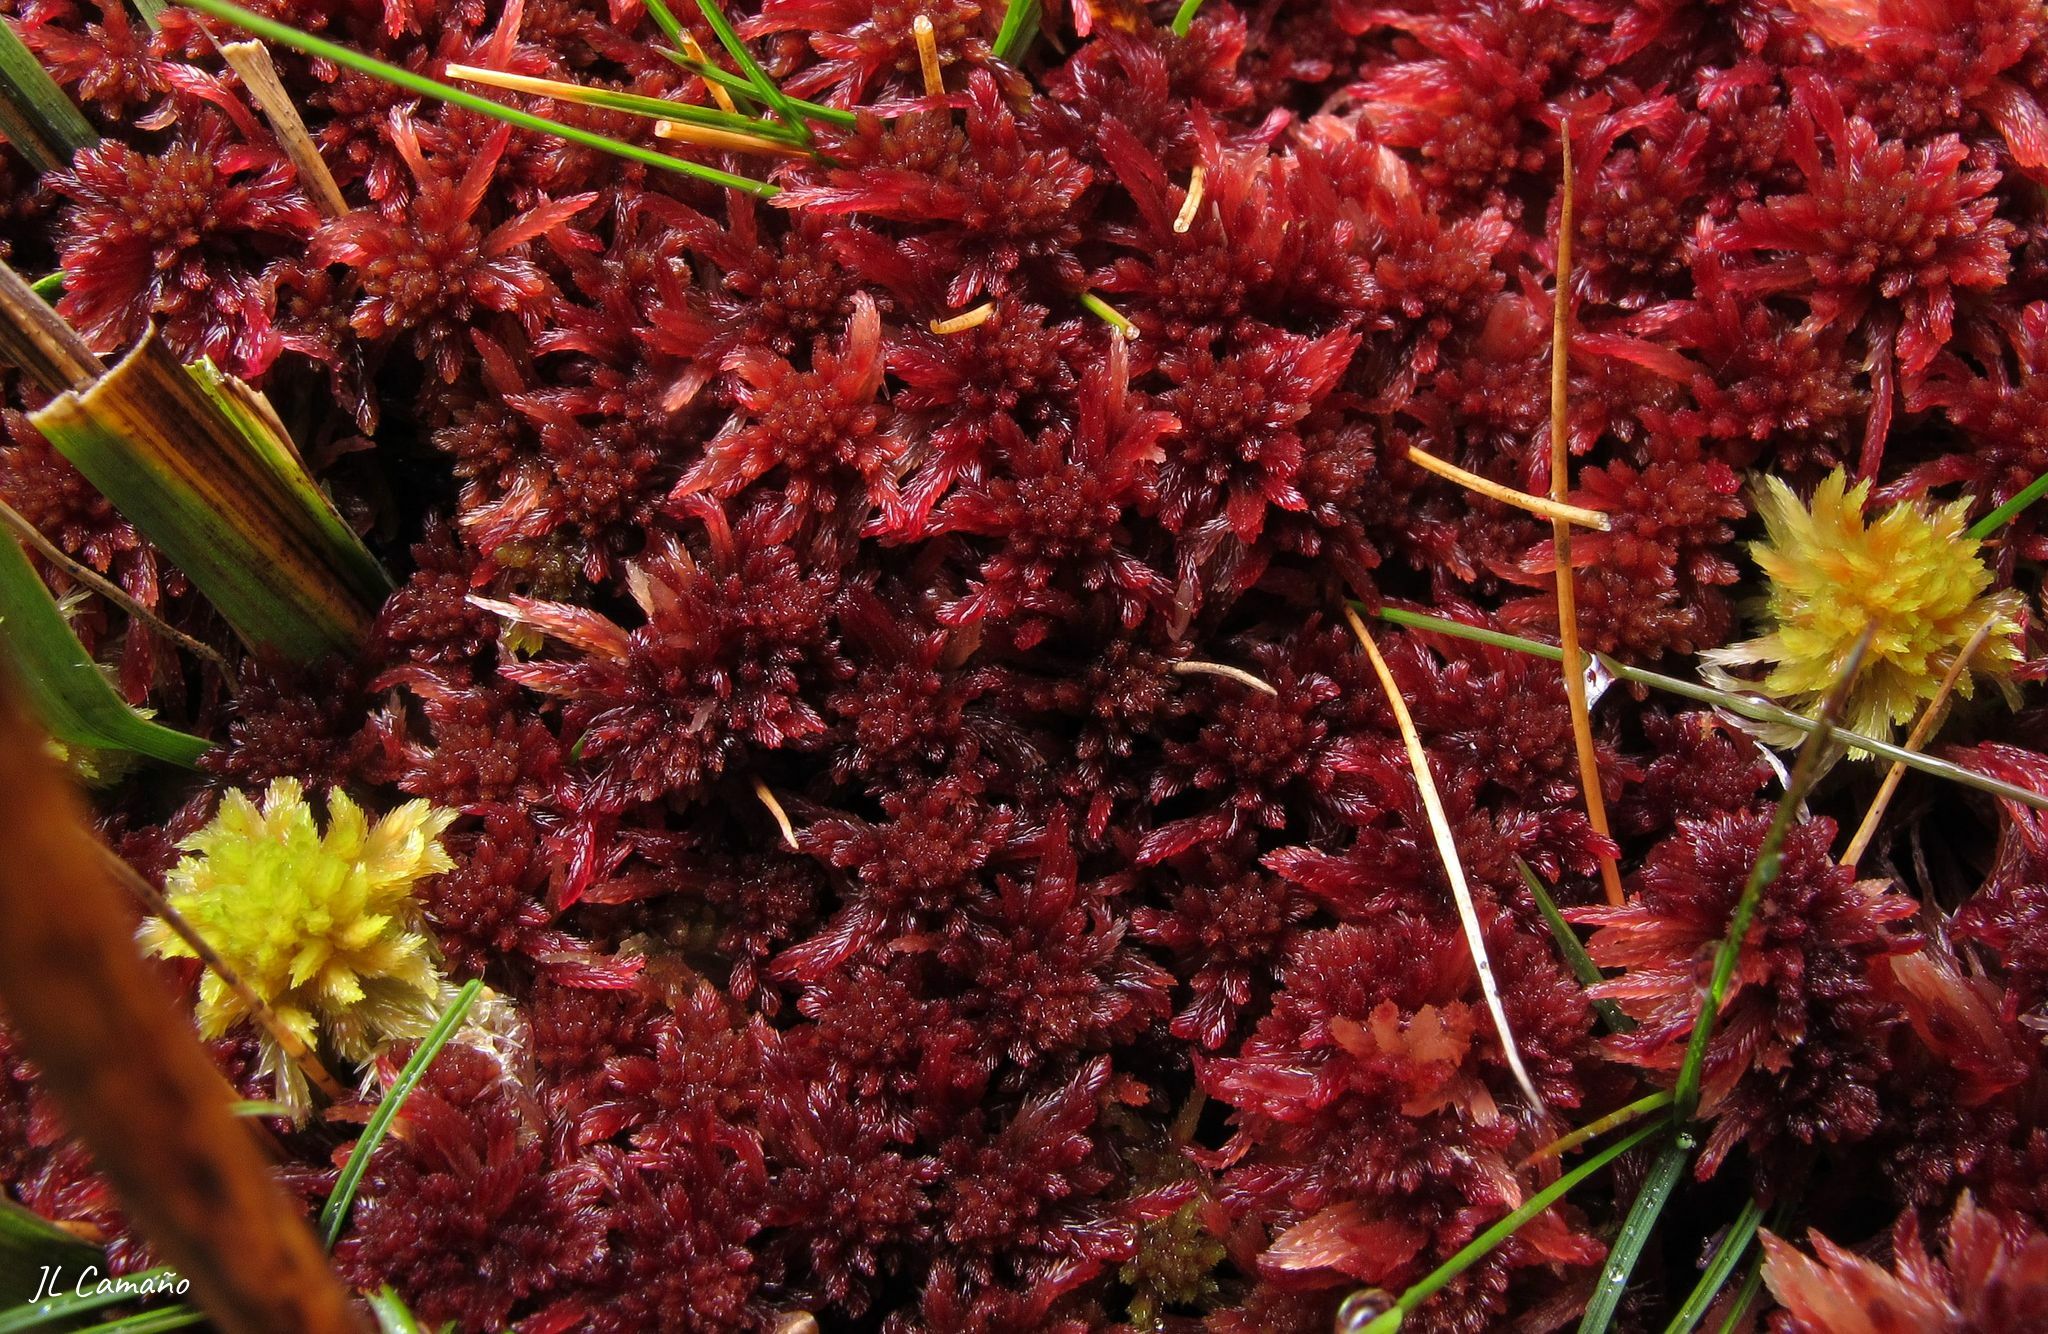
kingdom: Plantae
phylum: Bryophyta
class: Sphagnopsida
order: Sphagnales
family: Sphagnaceae
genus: Sphagnum
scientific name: Sphagnum rubellum
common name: Red peat moss
